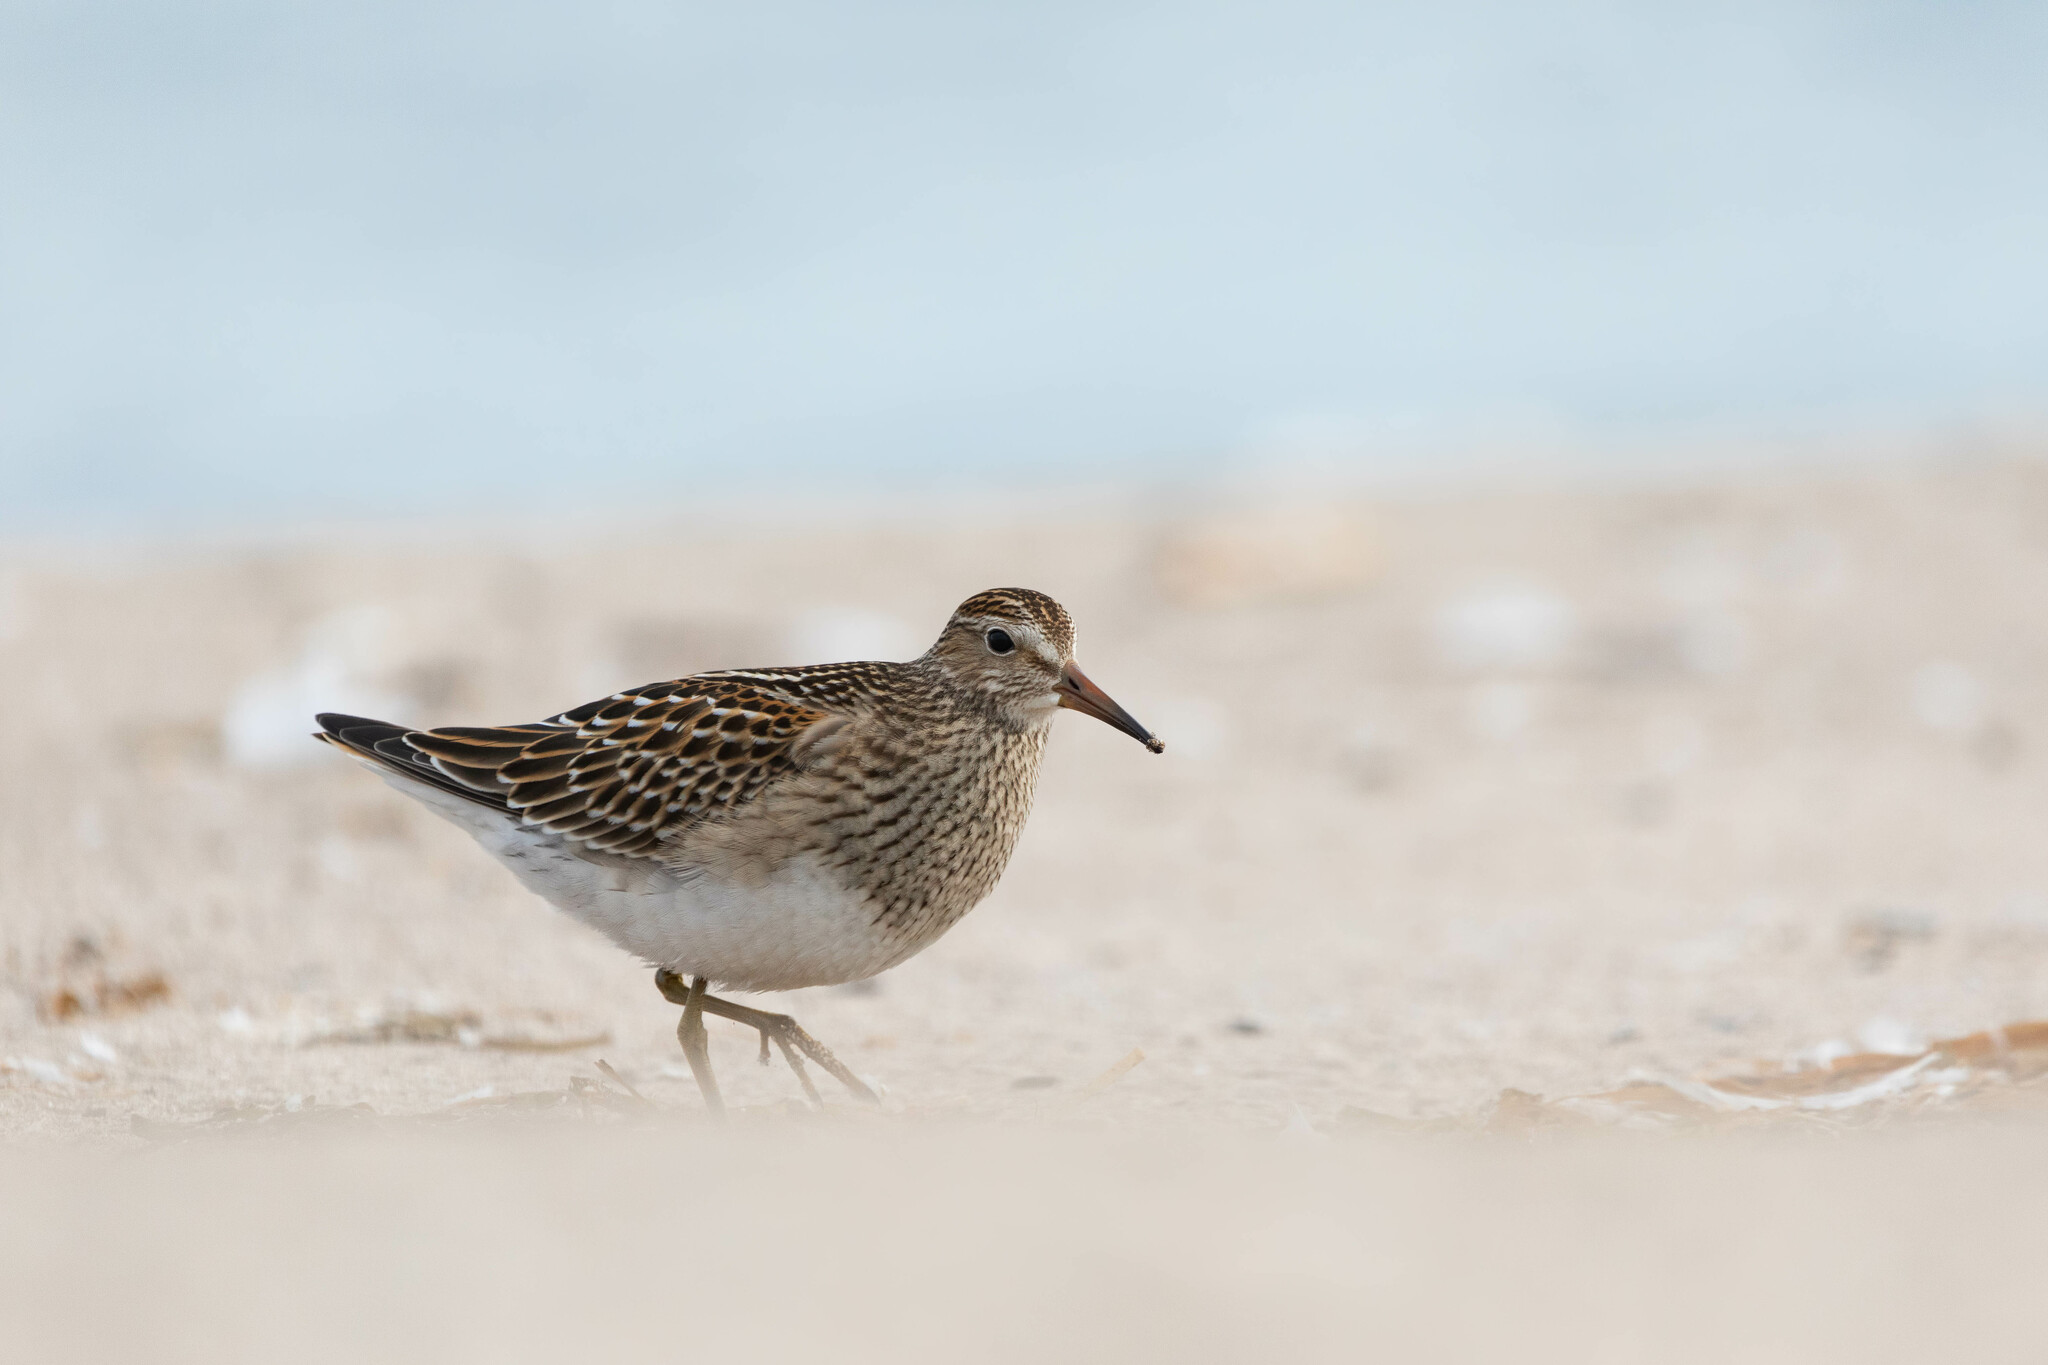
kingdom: Animalia
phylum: Chordata
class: Aves
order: Charadriiformes
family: Scolopacidae
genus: Calidris
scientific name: Calidris melanotos
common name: Pectoral sandpiper
